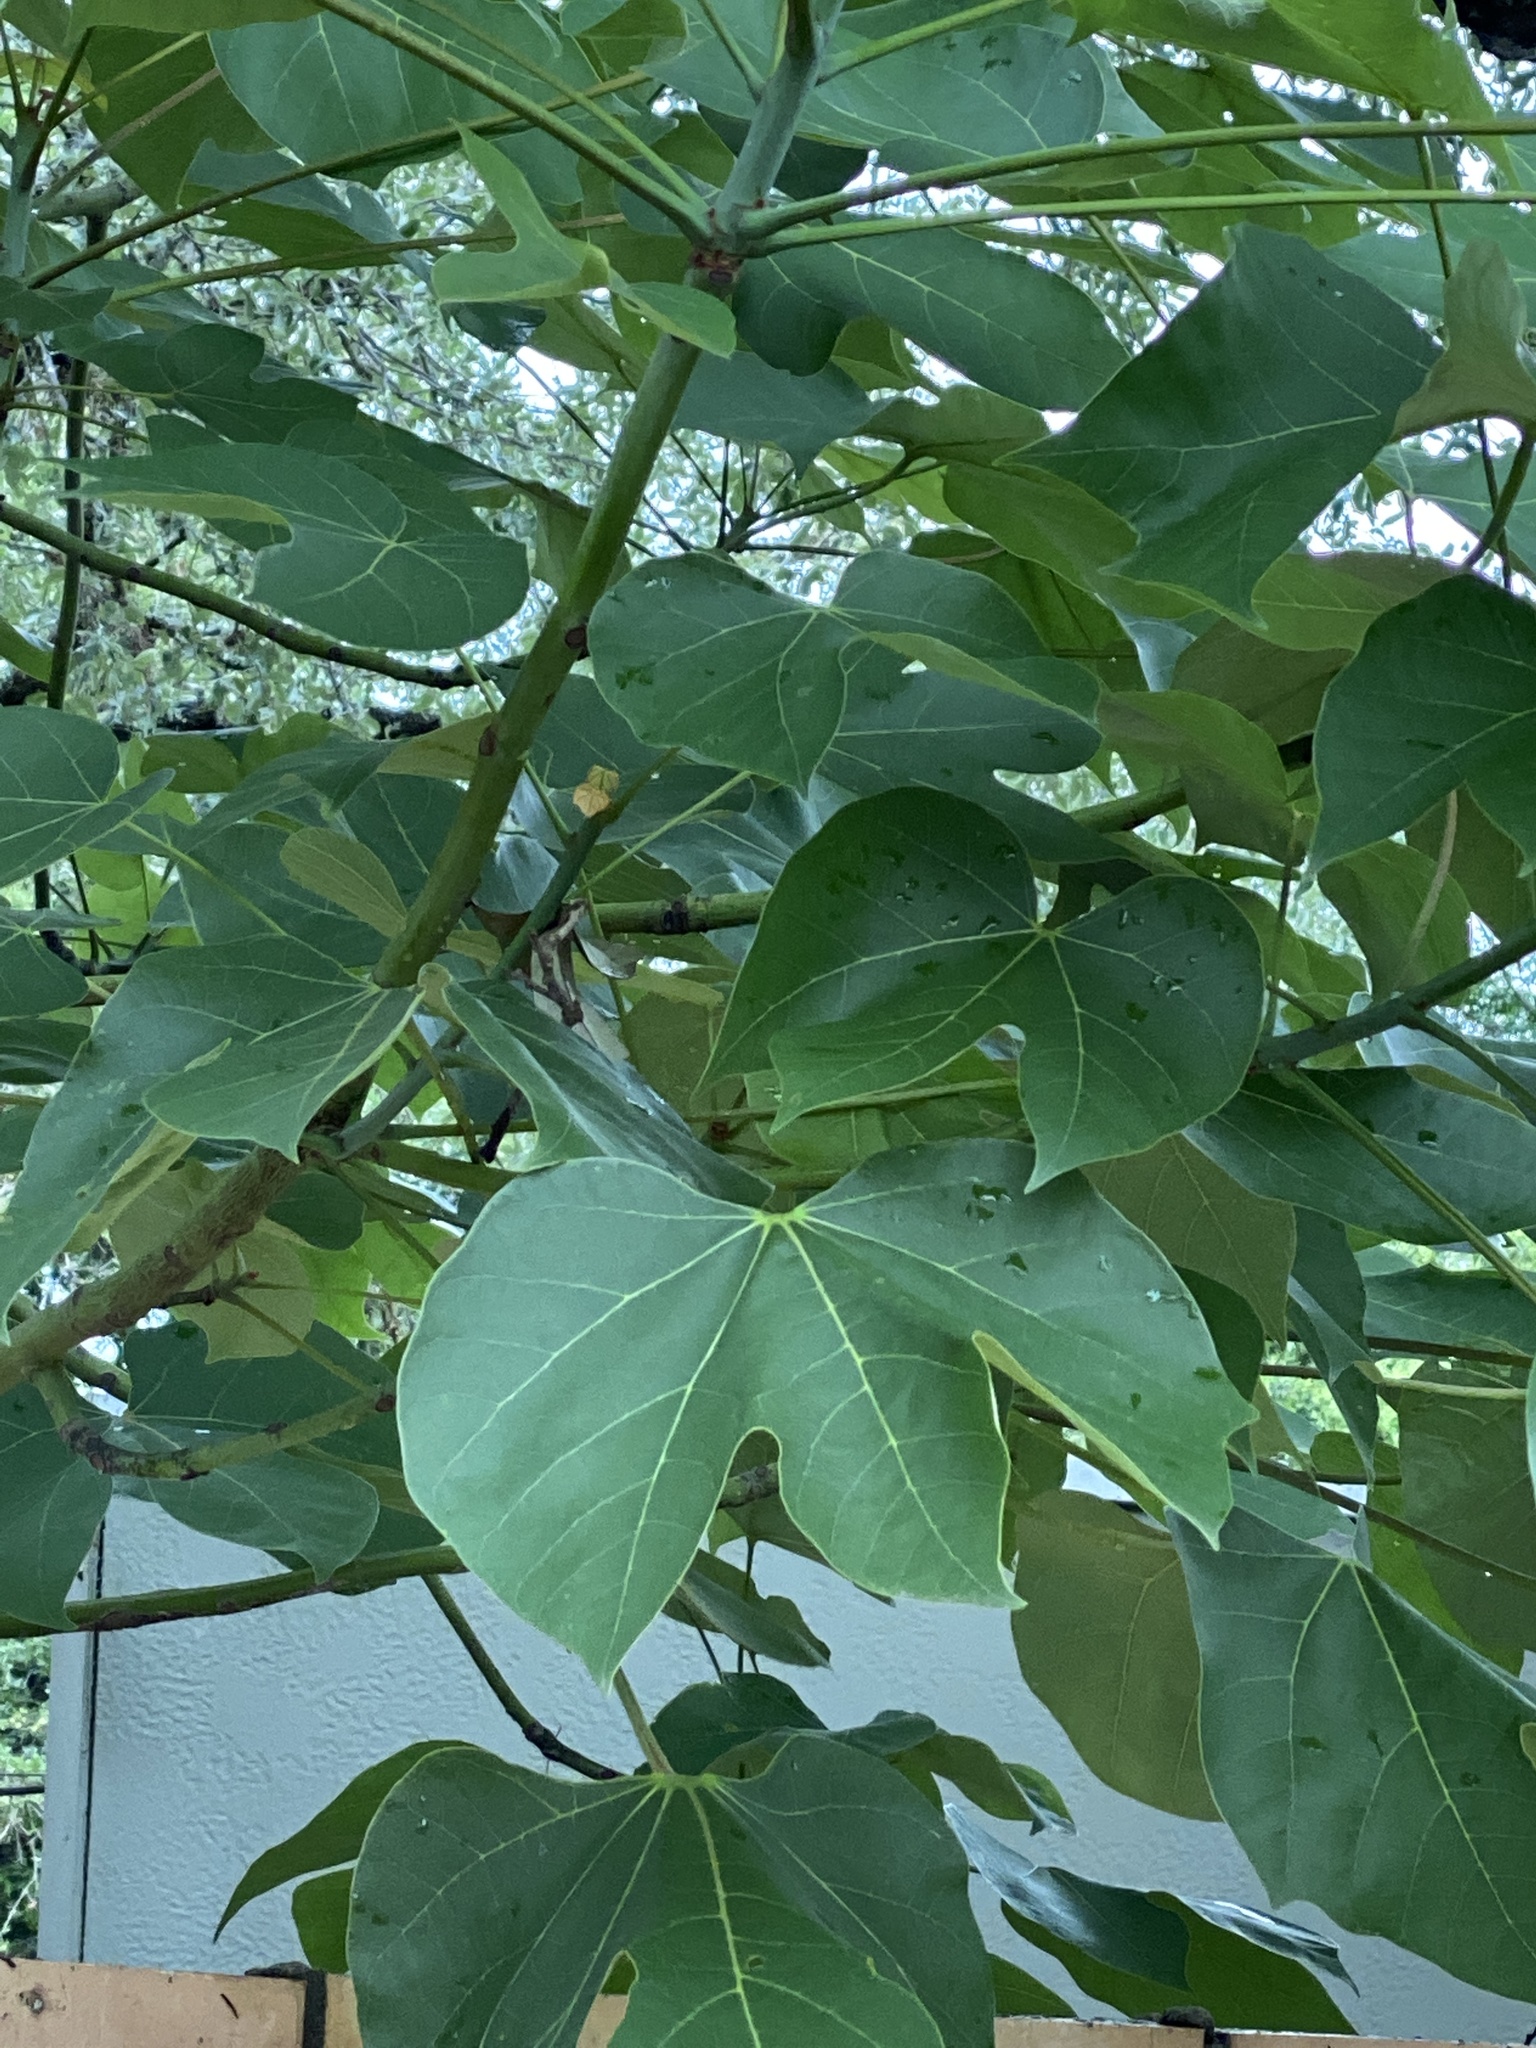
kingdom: Plantae
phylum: Tracheophyta
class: Magnoliopsida
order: Malvales
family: Malvaceae
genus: Firmiana
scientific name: Firmiana simplex
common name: Chinese parasoltree
